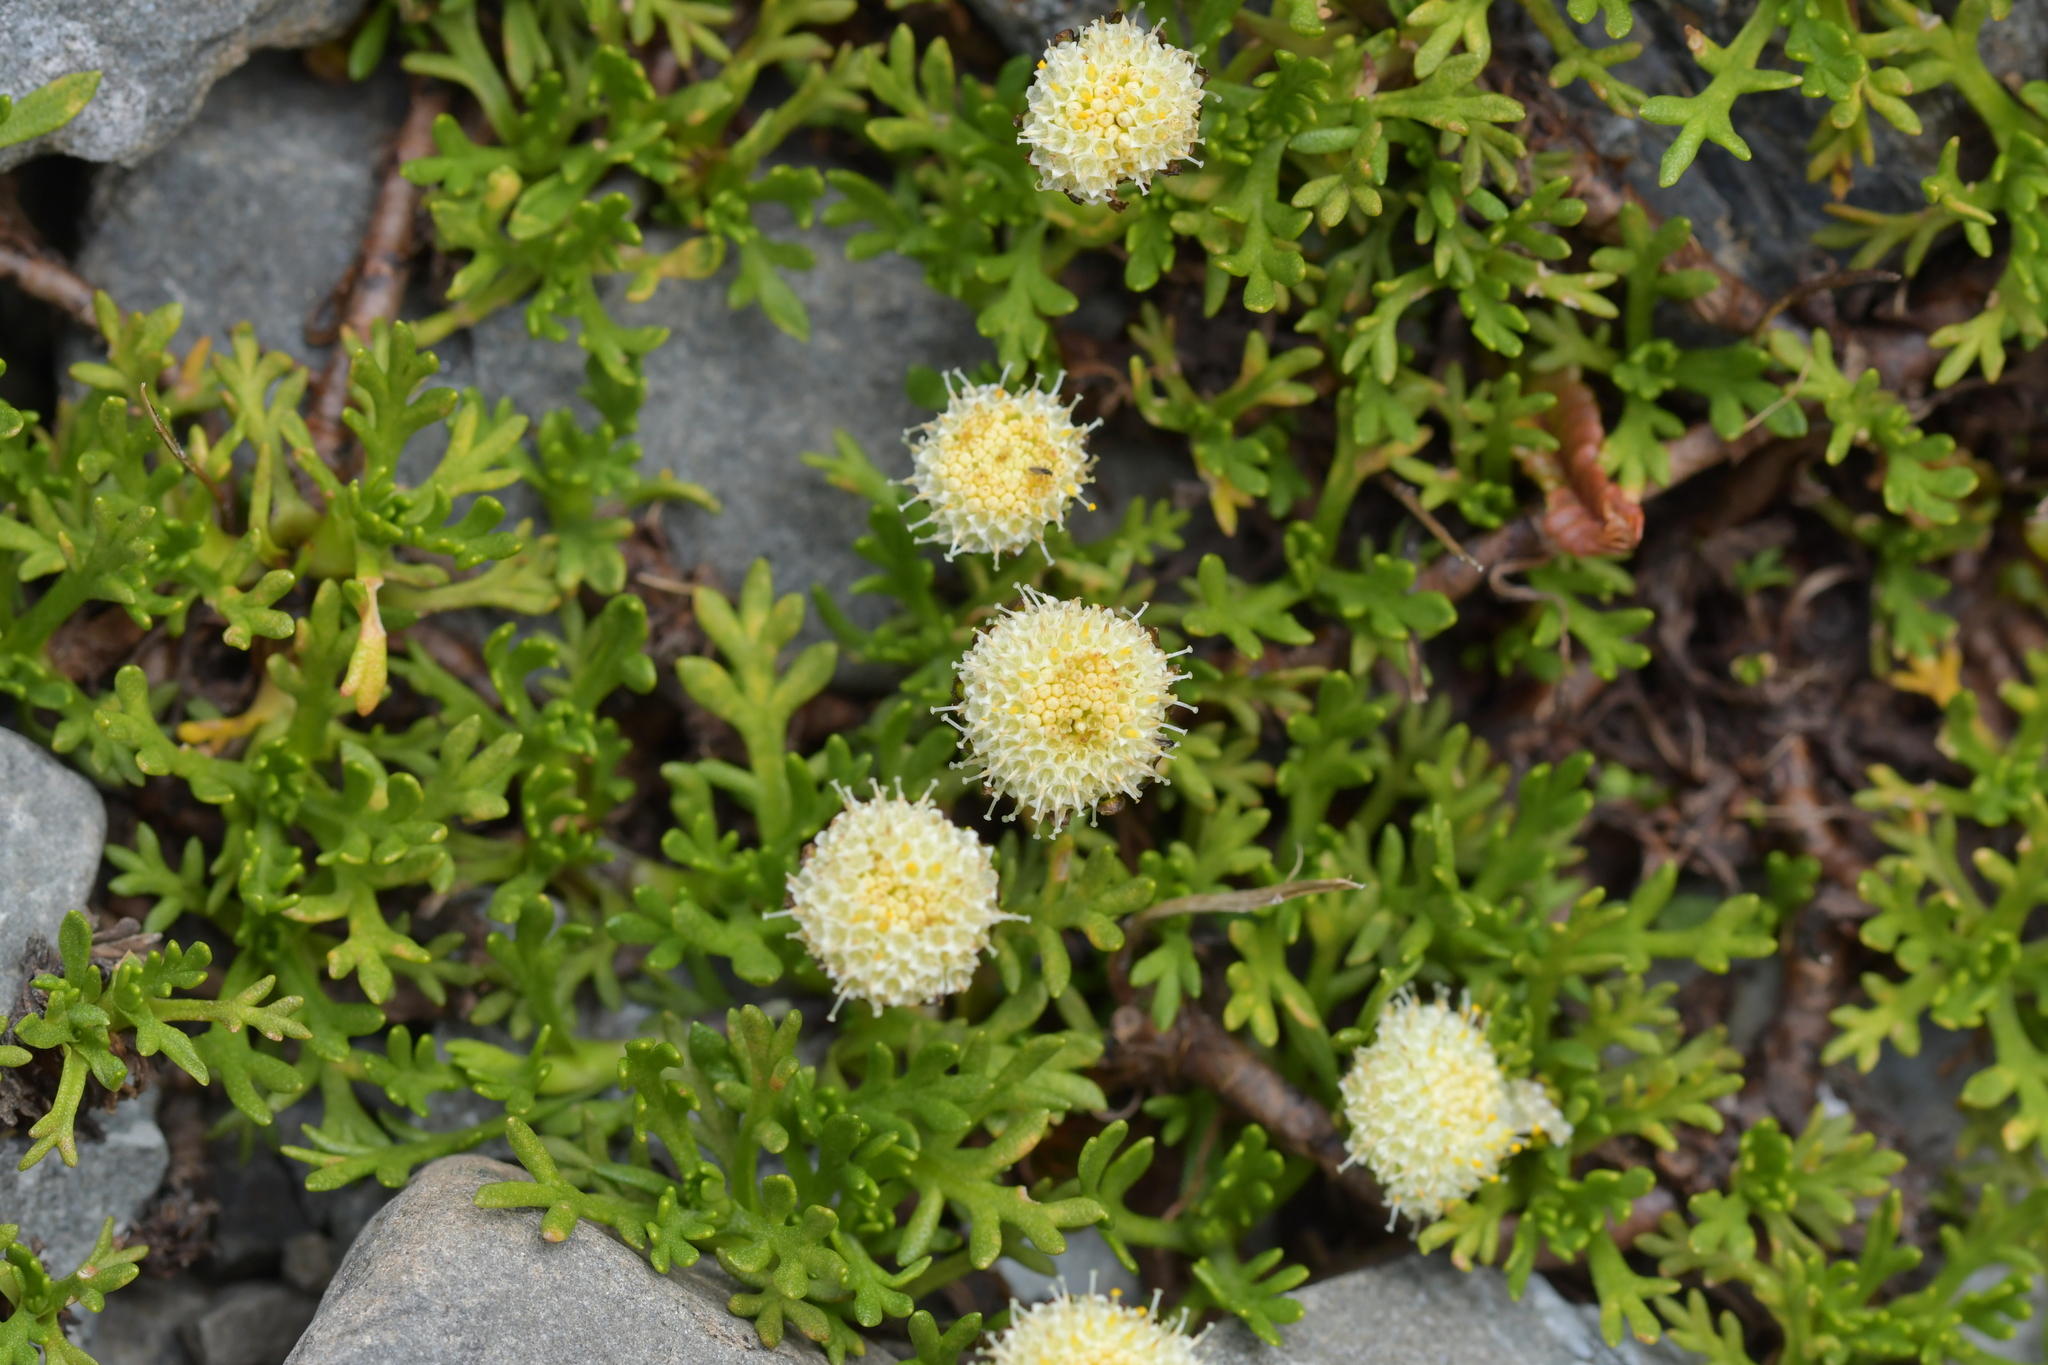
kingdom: Plantae
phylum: Tracheophyta
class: Magnoliopsida
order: Asterales
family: Asteraceae
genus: Leptinella
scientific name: Leptinella pyrethrifolia
